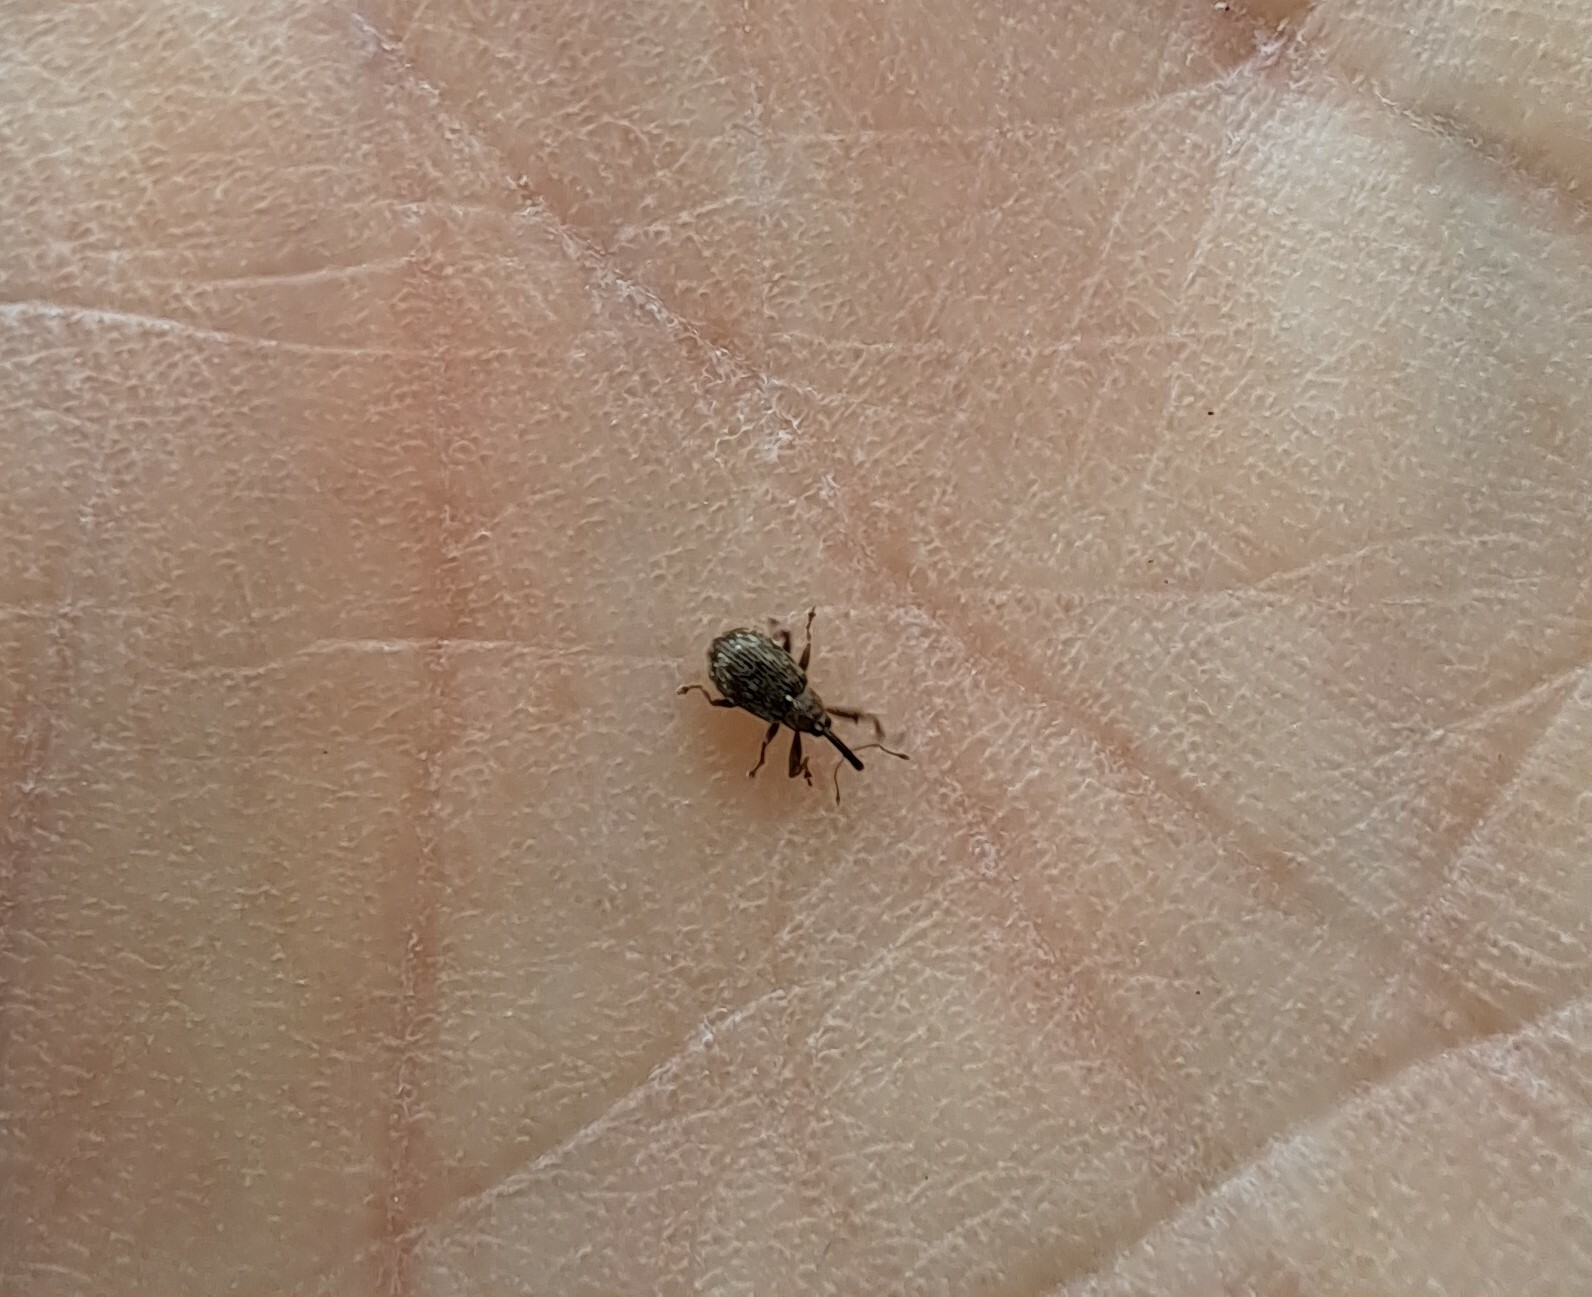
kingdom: Animalia
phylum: Arthropoda
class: Insecta
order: Coleoptera
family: Curculionidae
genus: Anthonomus
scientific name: Anthonomus humeralis
